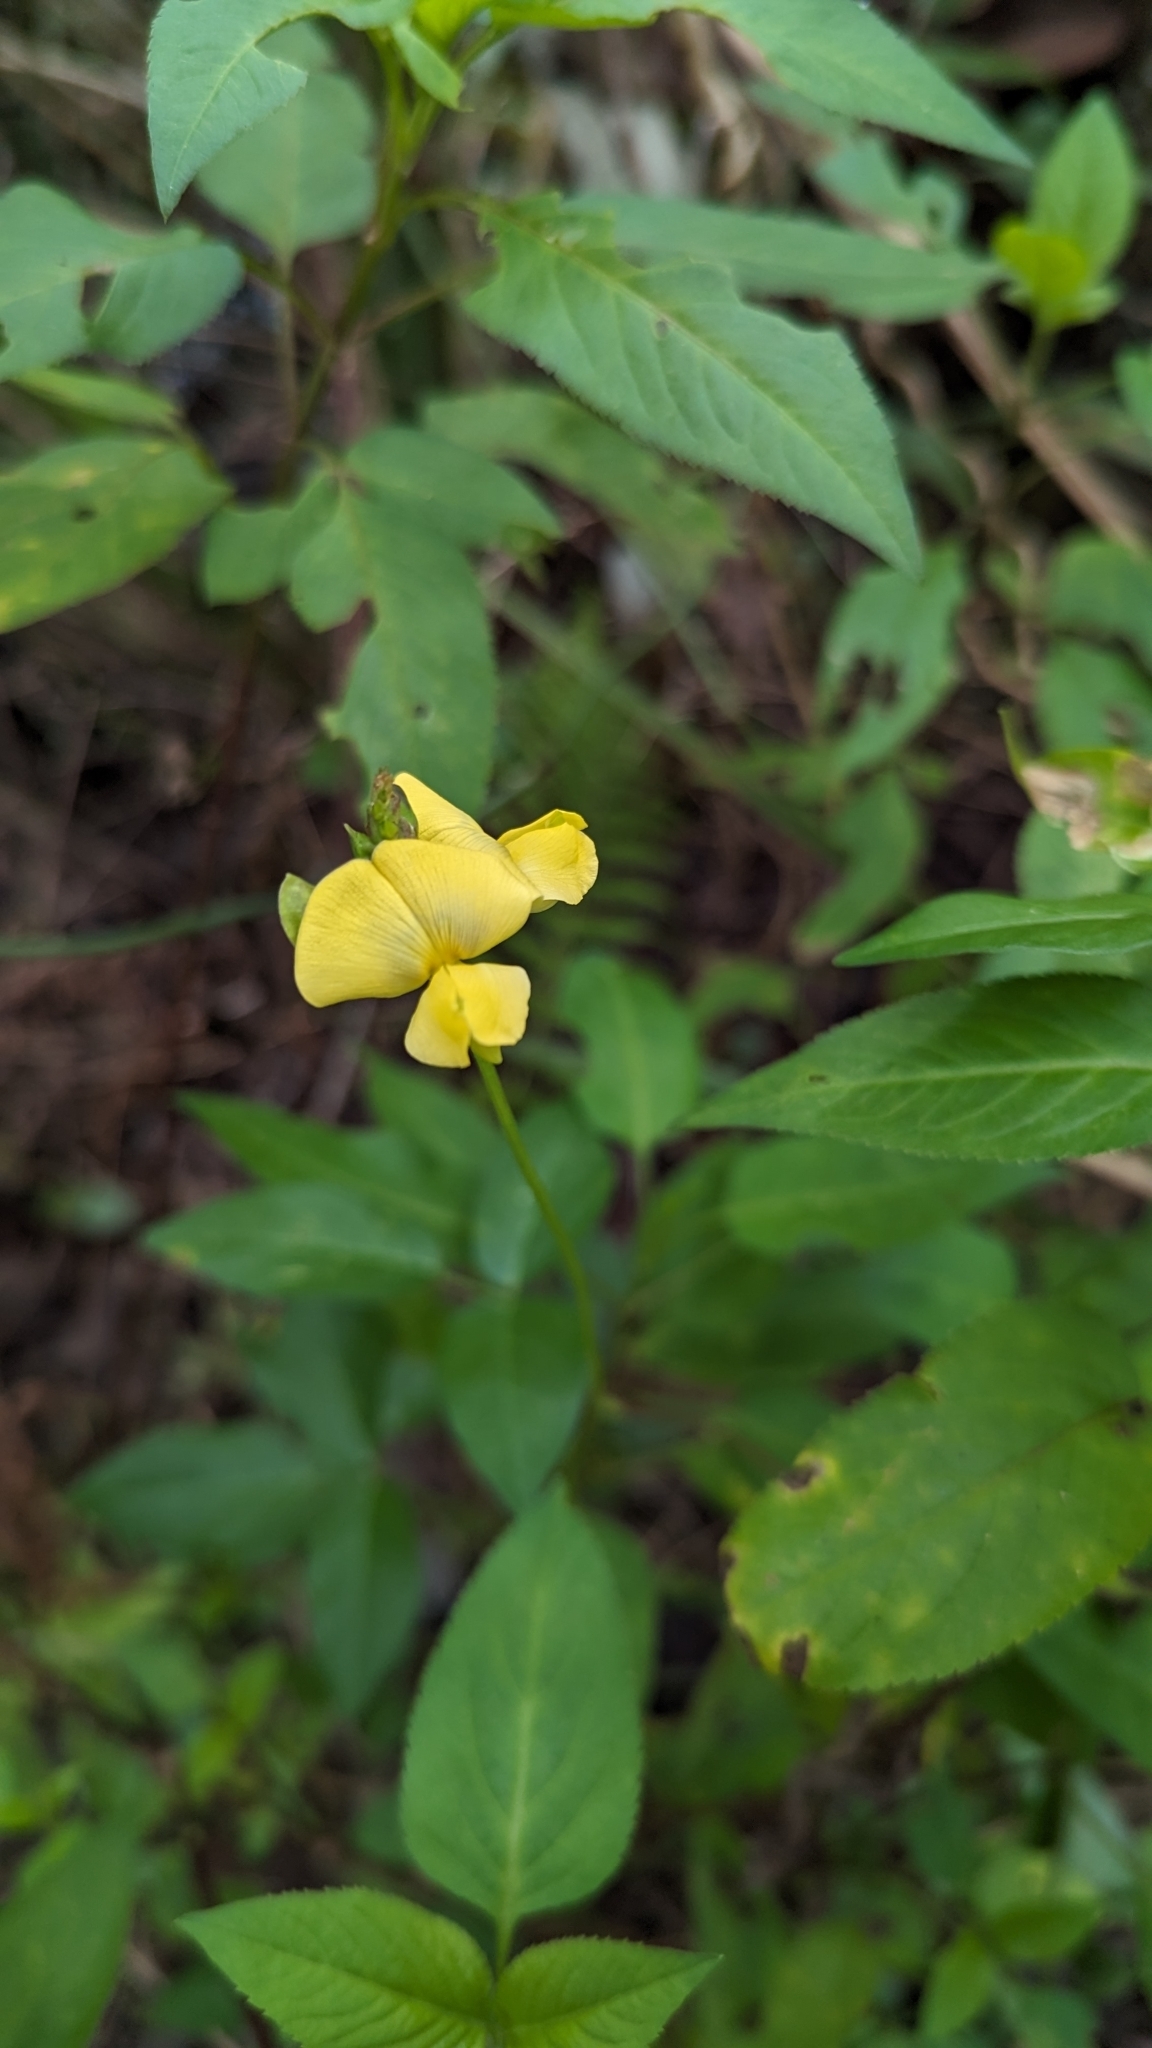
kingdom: Plantae
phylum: Tracheophyta
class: Magnoliopsida
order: Fabales
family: Fabaceae
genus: Vigna
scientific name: Vigna luteola
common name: Hairypod cowpea
